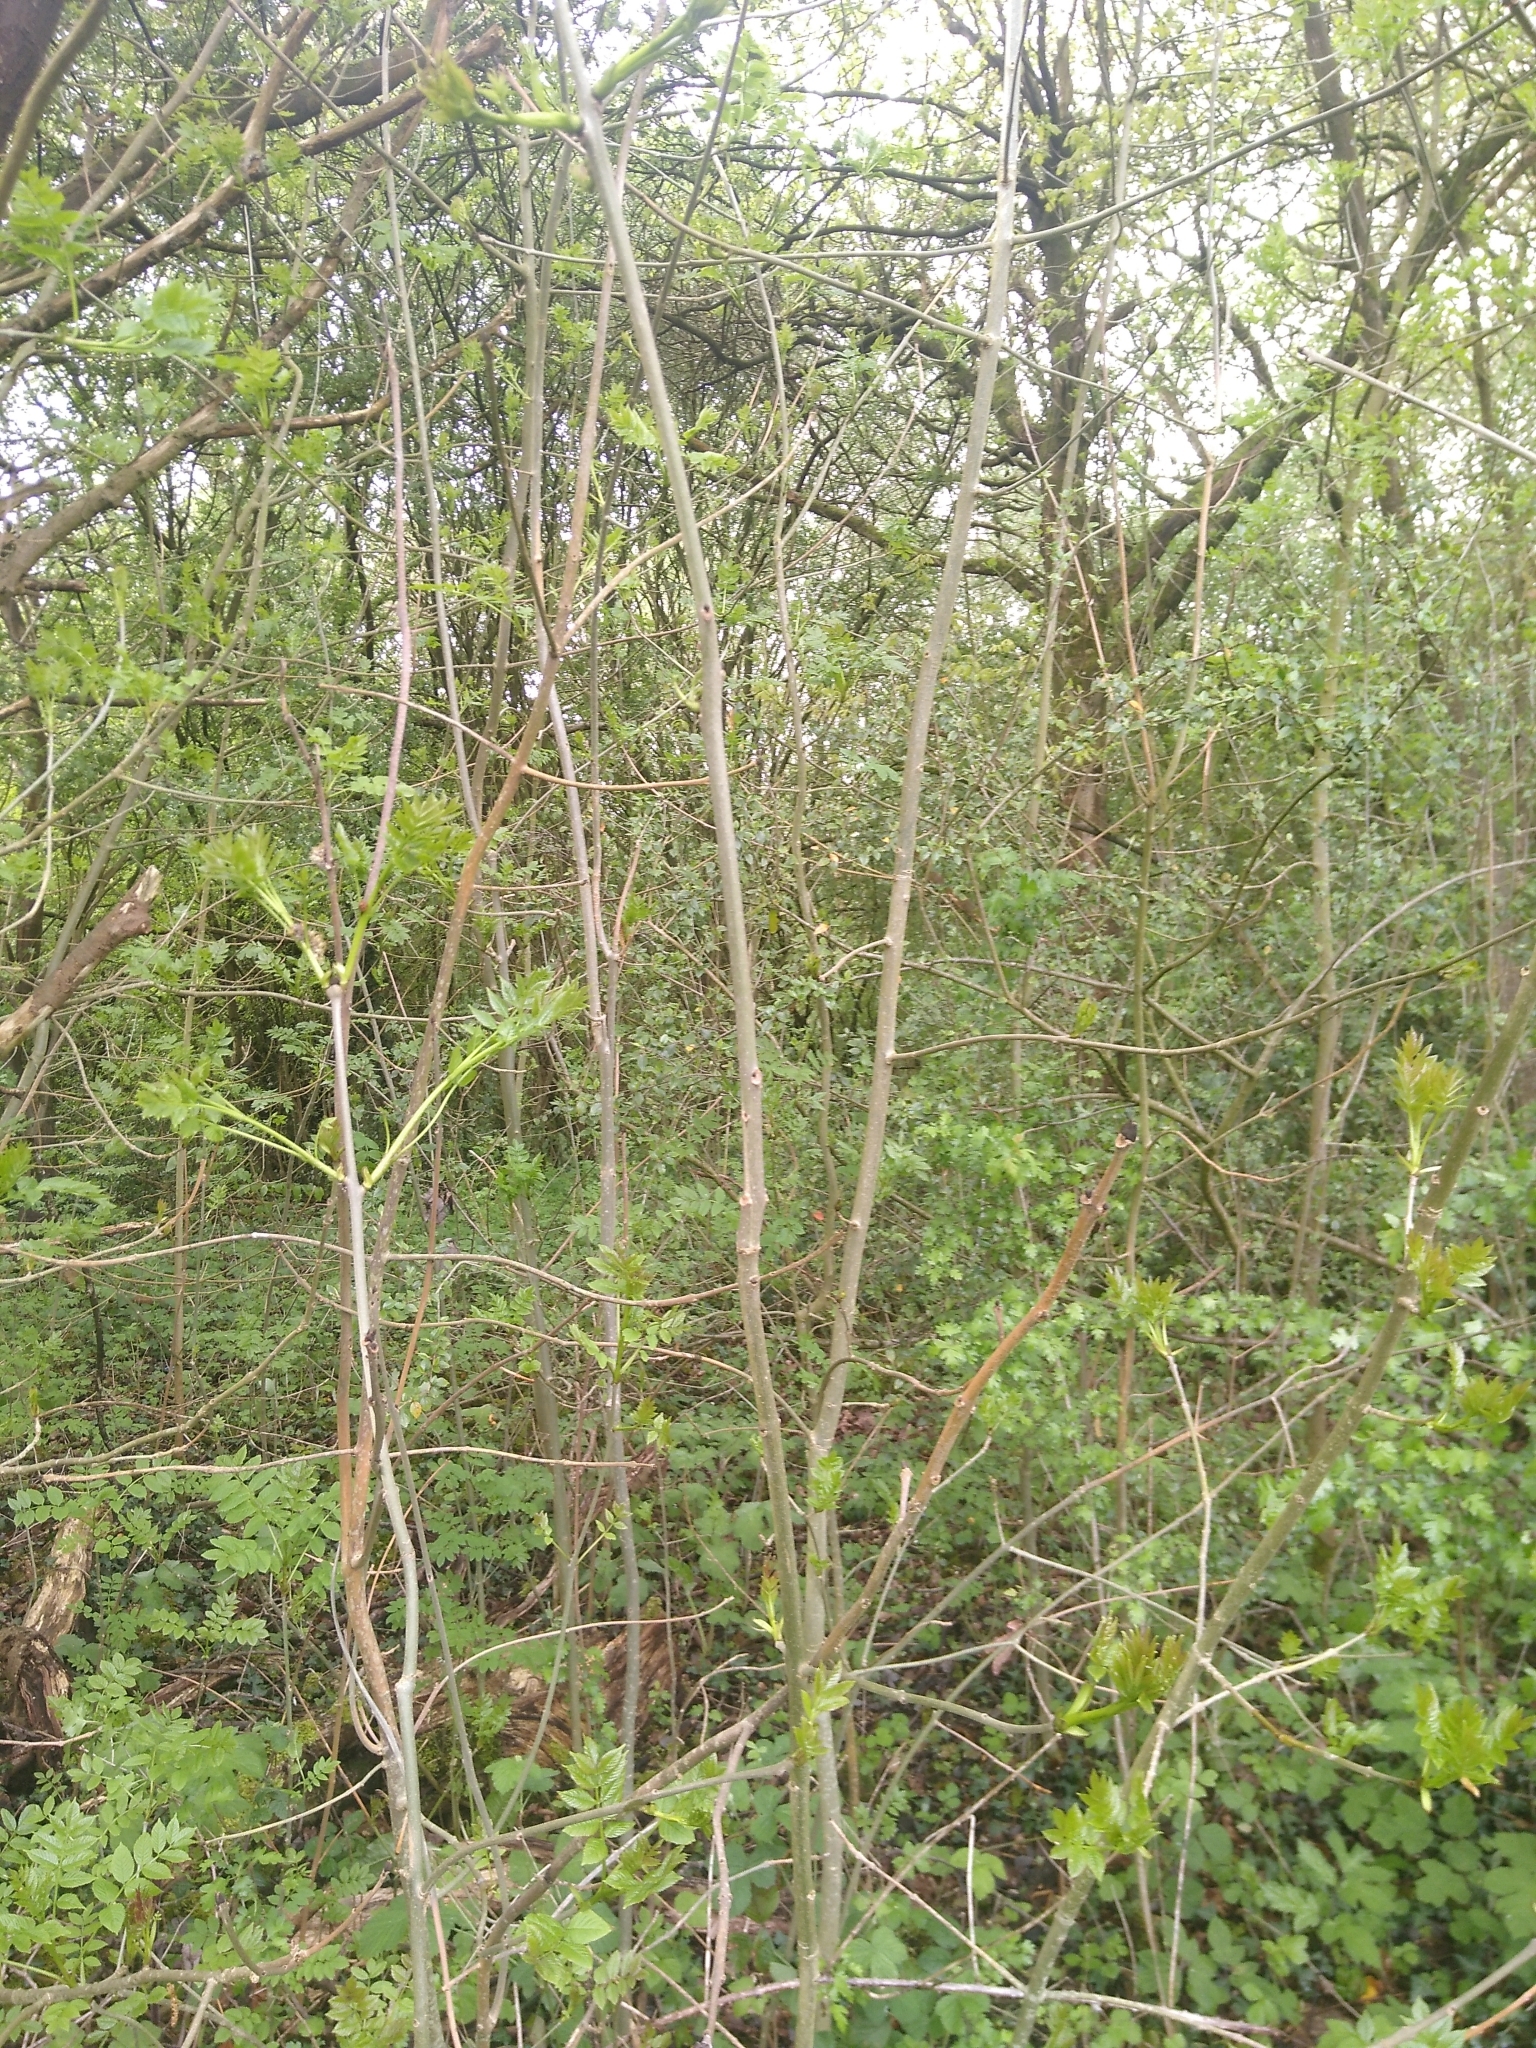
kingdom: Plantae
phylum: Tracheophyta
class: Magnoliopsida
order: Lamiales
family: Oleaceae
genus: Fraxinus
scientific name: Fraxinus excelsior
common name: European ash
